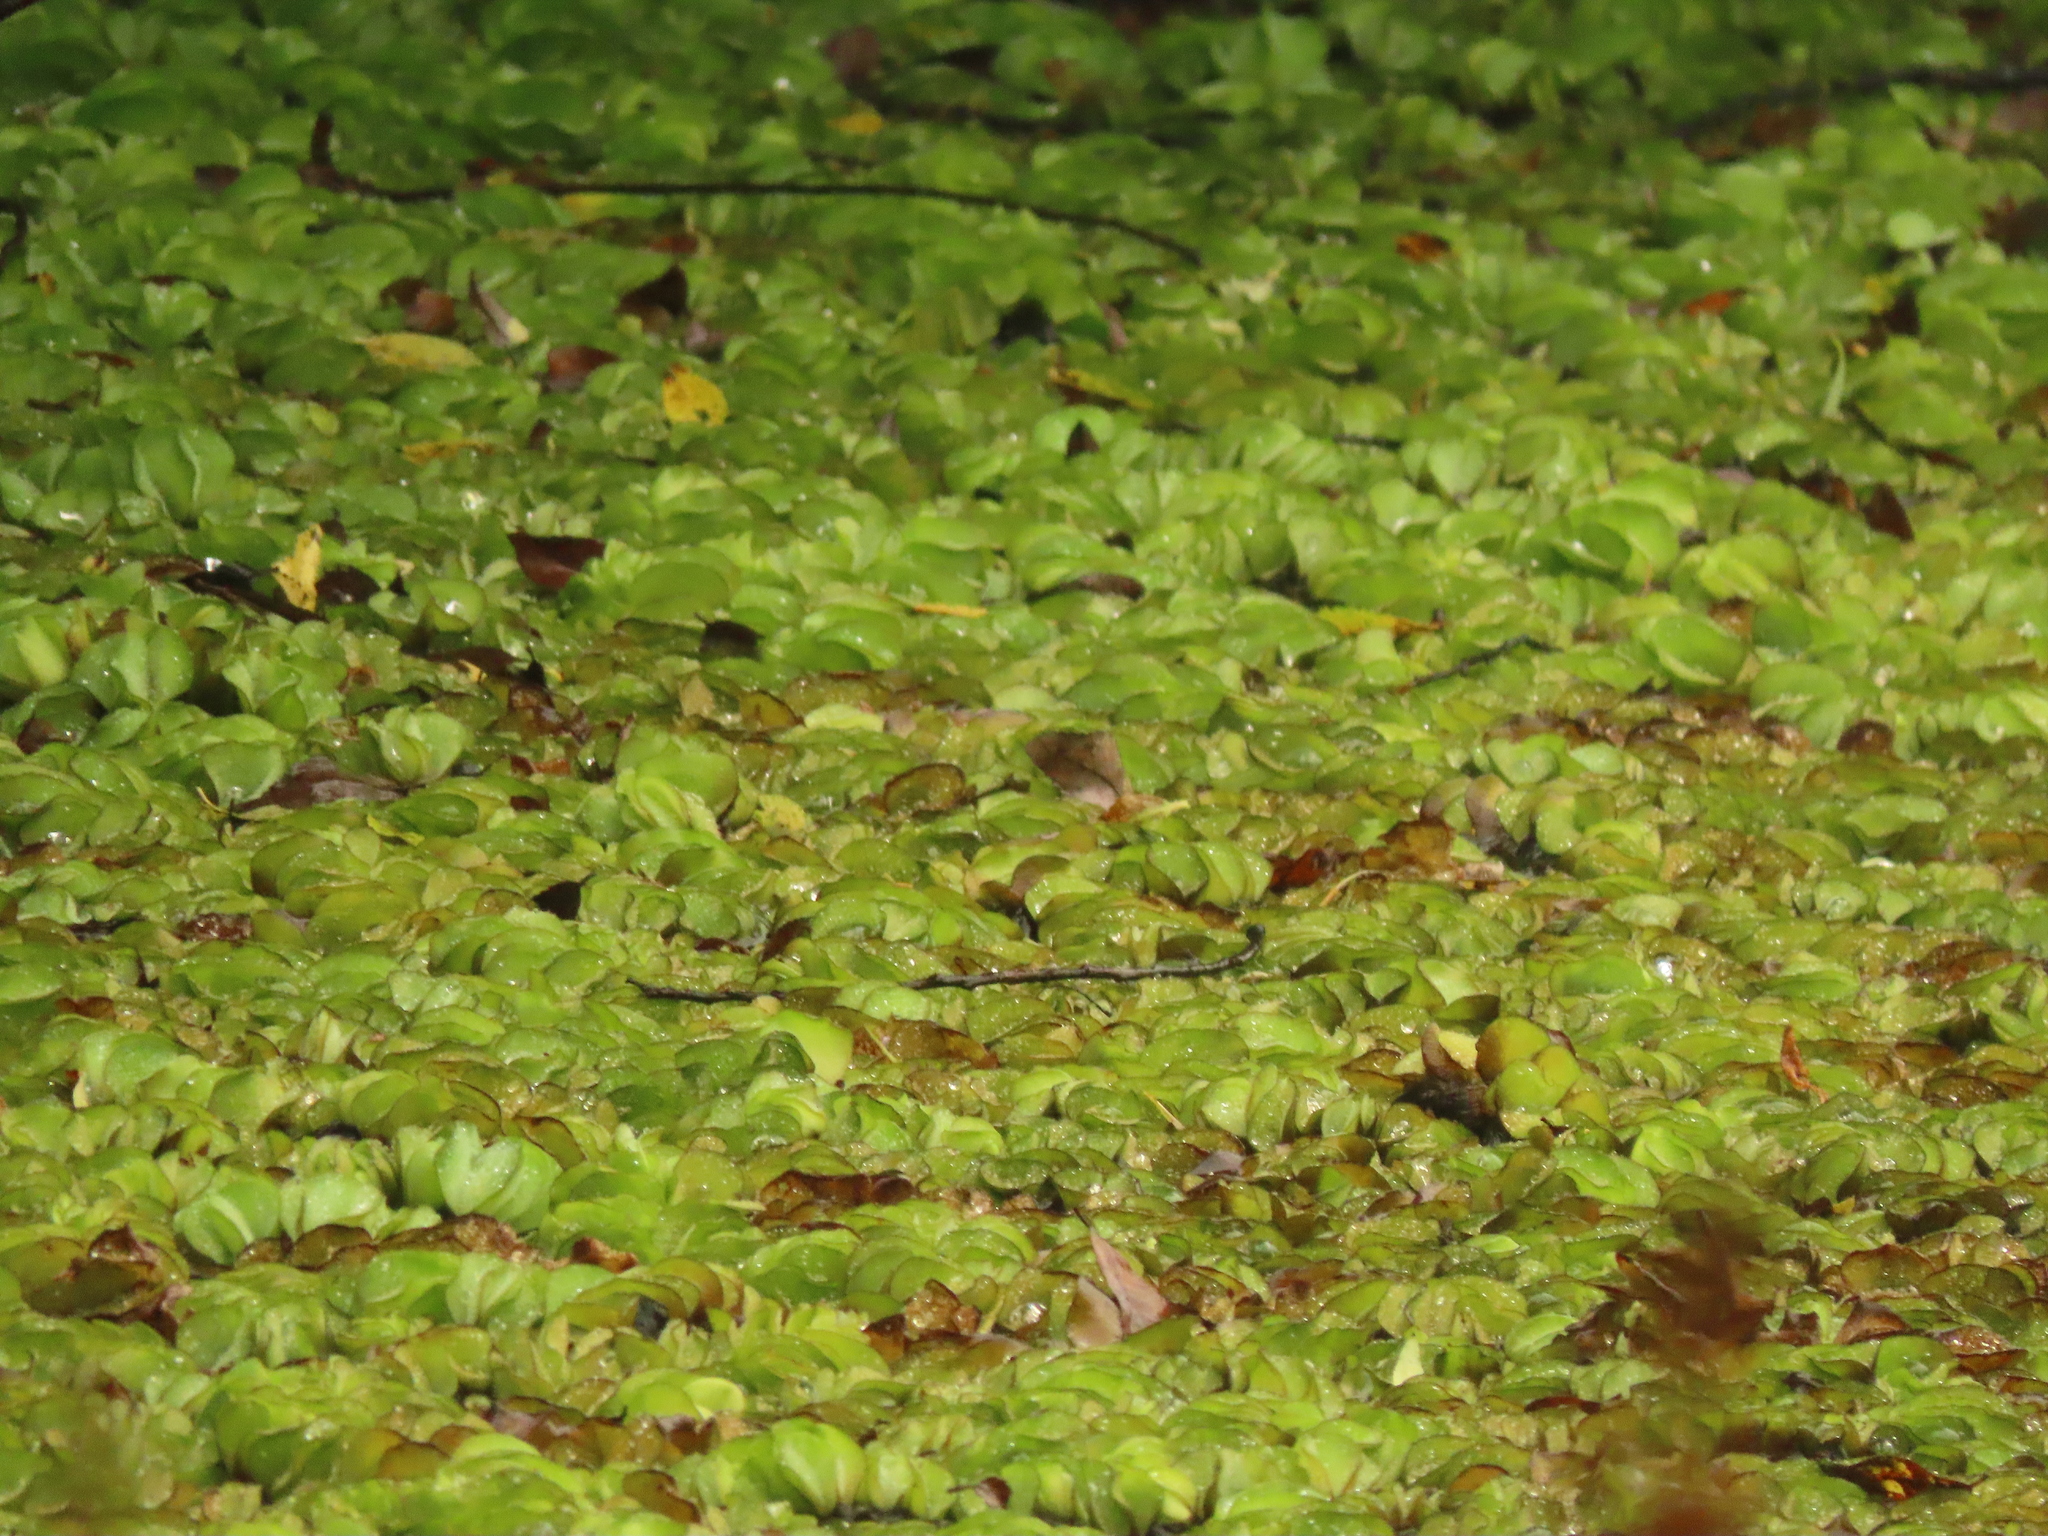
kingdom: Plantae
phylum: Tracheophyta
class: Polypodiopsida
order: Salviniales
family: Salviniaceae
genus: Salvinia
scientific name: Salvinia molesta
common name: Kariba weed
